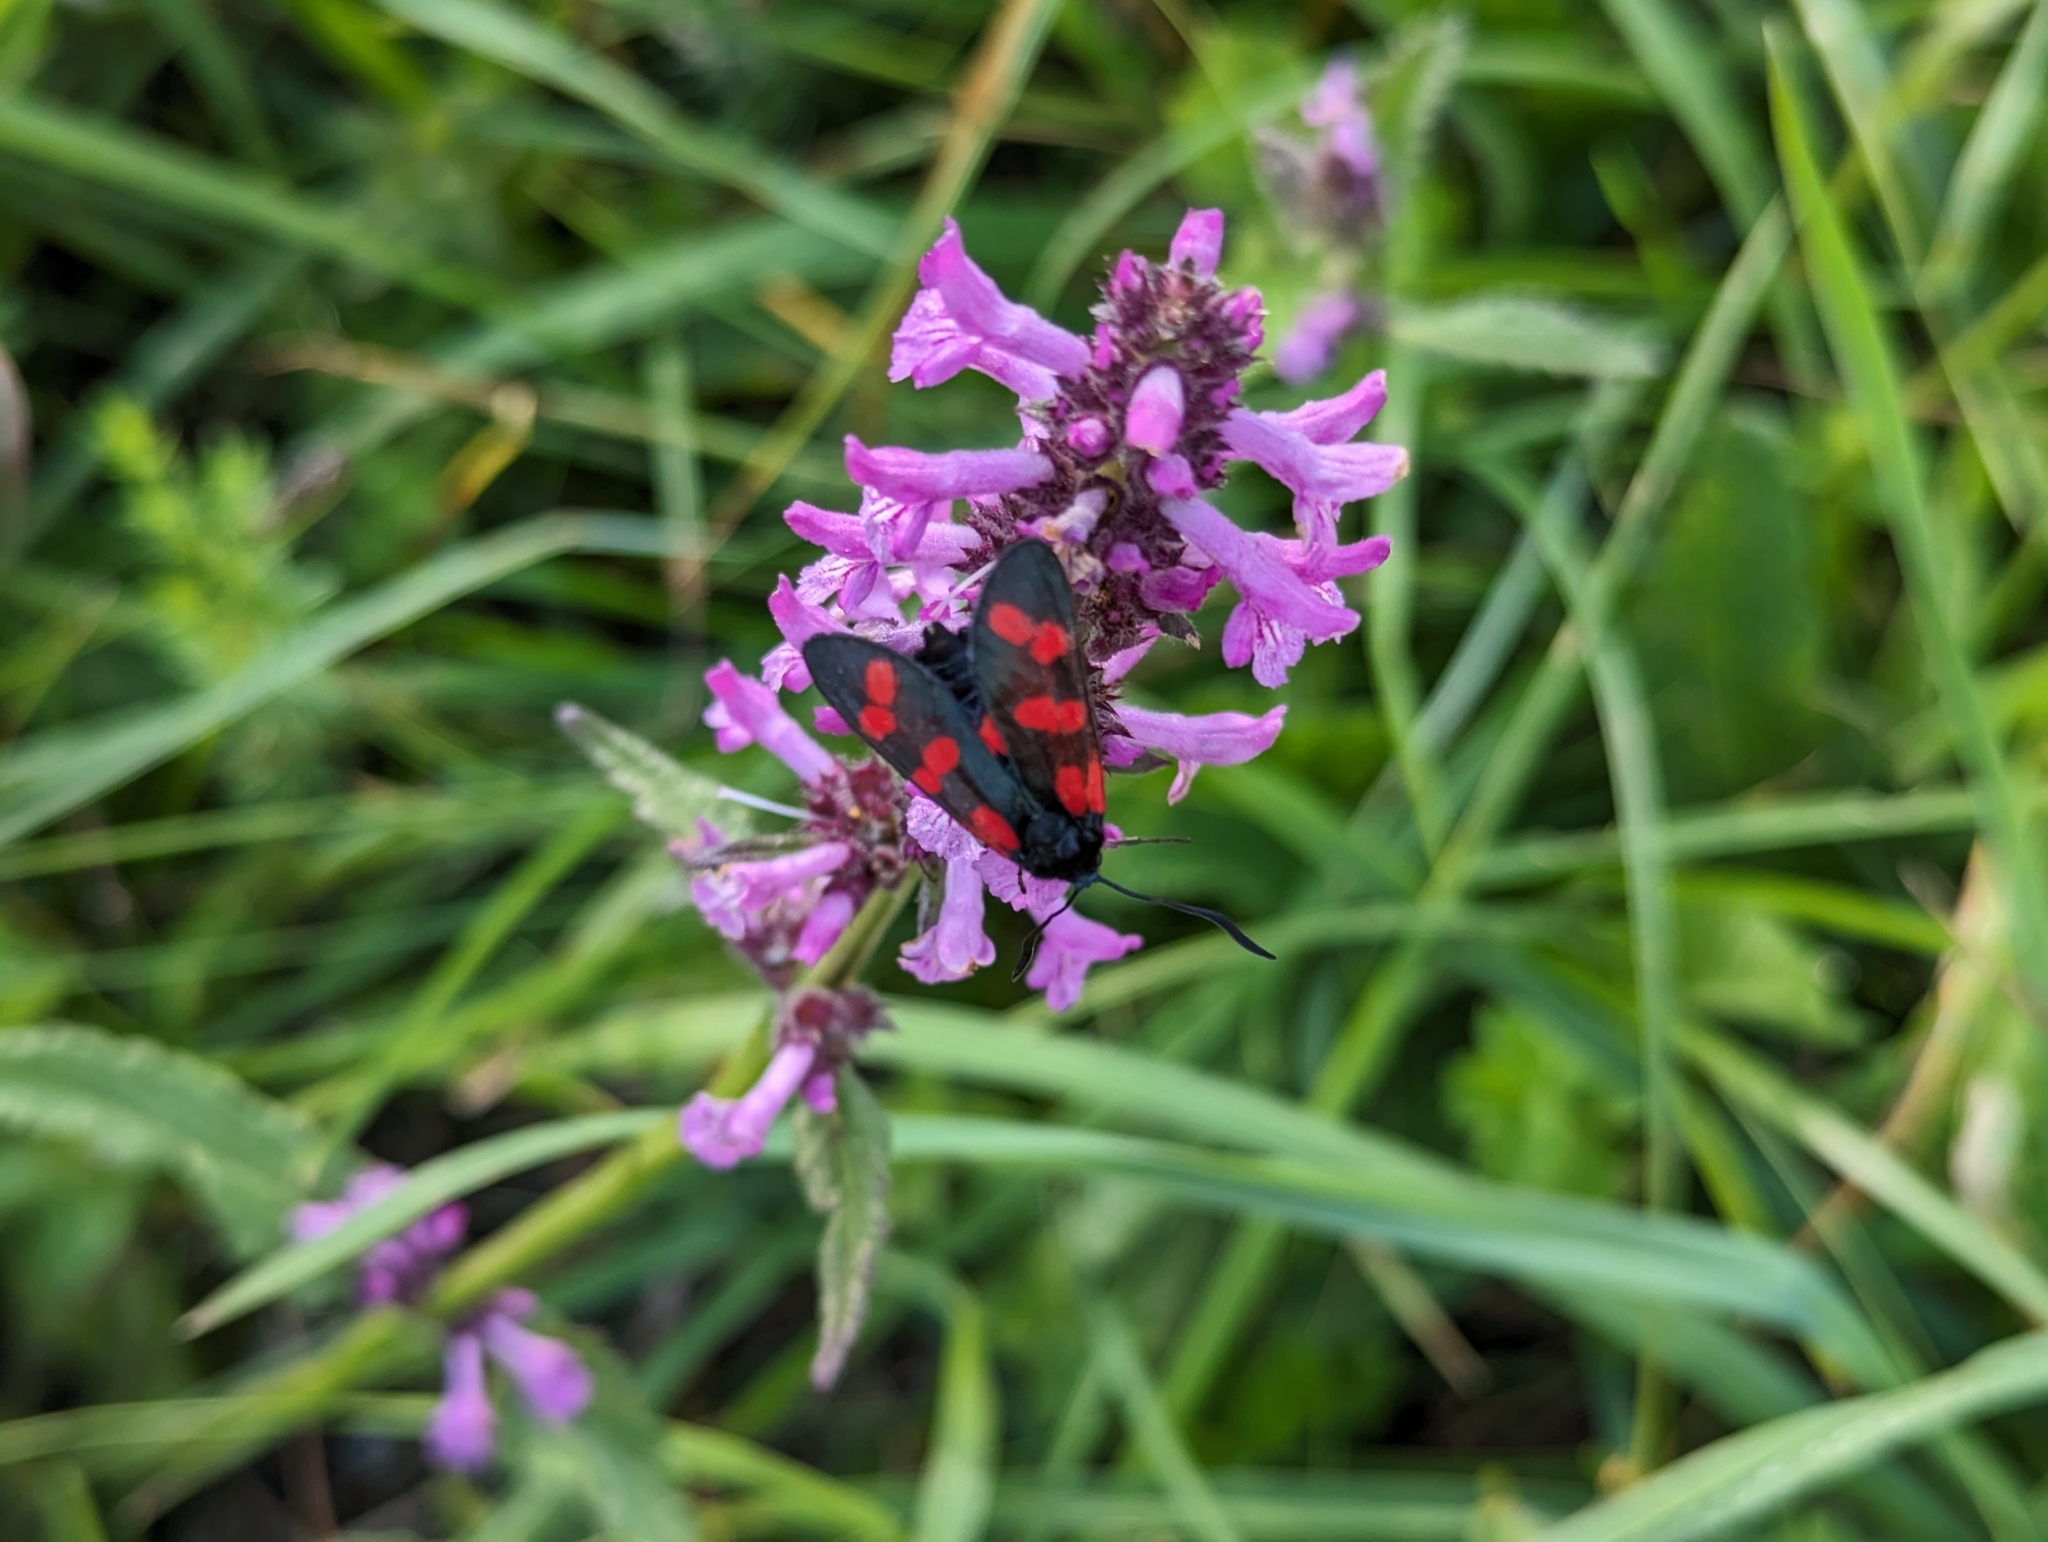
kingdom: Animalia
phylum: Arthropoda
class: Insecta
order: Lepidoptera
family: Zygaenidae
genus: Zygaena
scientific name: Zygaena filipendulae
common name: Six-spot burnet
